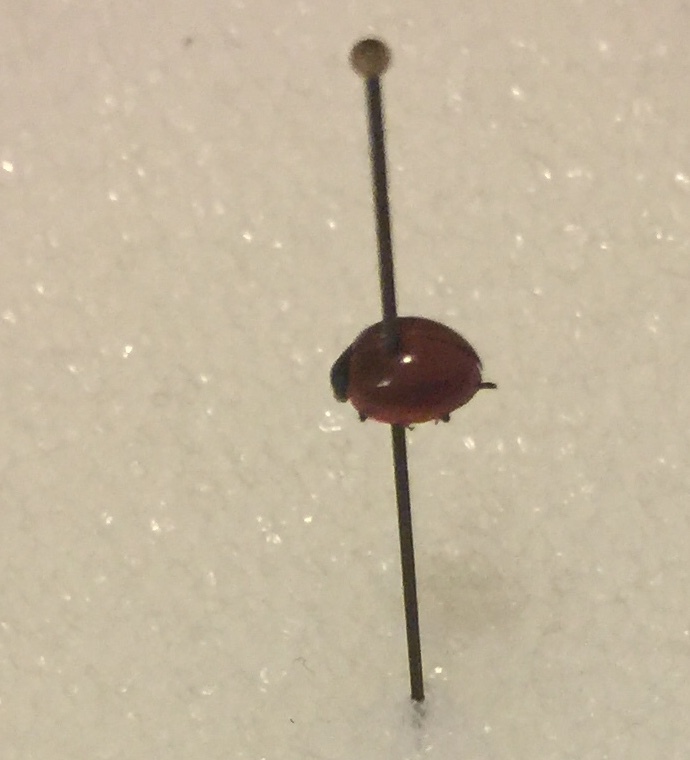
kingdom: Animalia
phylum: Arthropoda
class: Insecta
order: Coleoptera
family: Coccinellidae
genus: Cycloneda
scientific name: Cycloneda sanguinea
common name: Ladybird beetle
